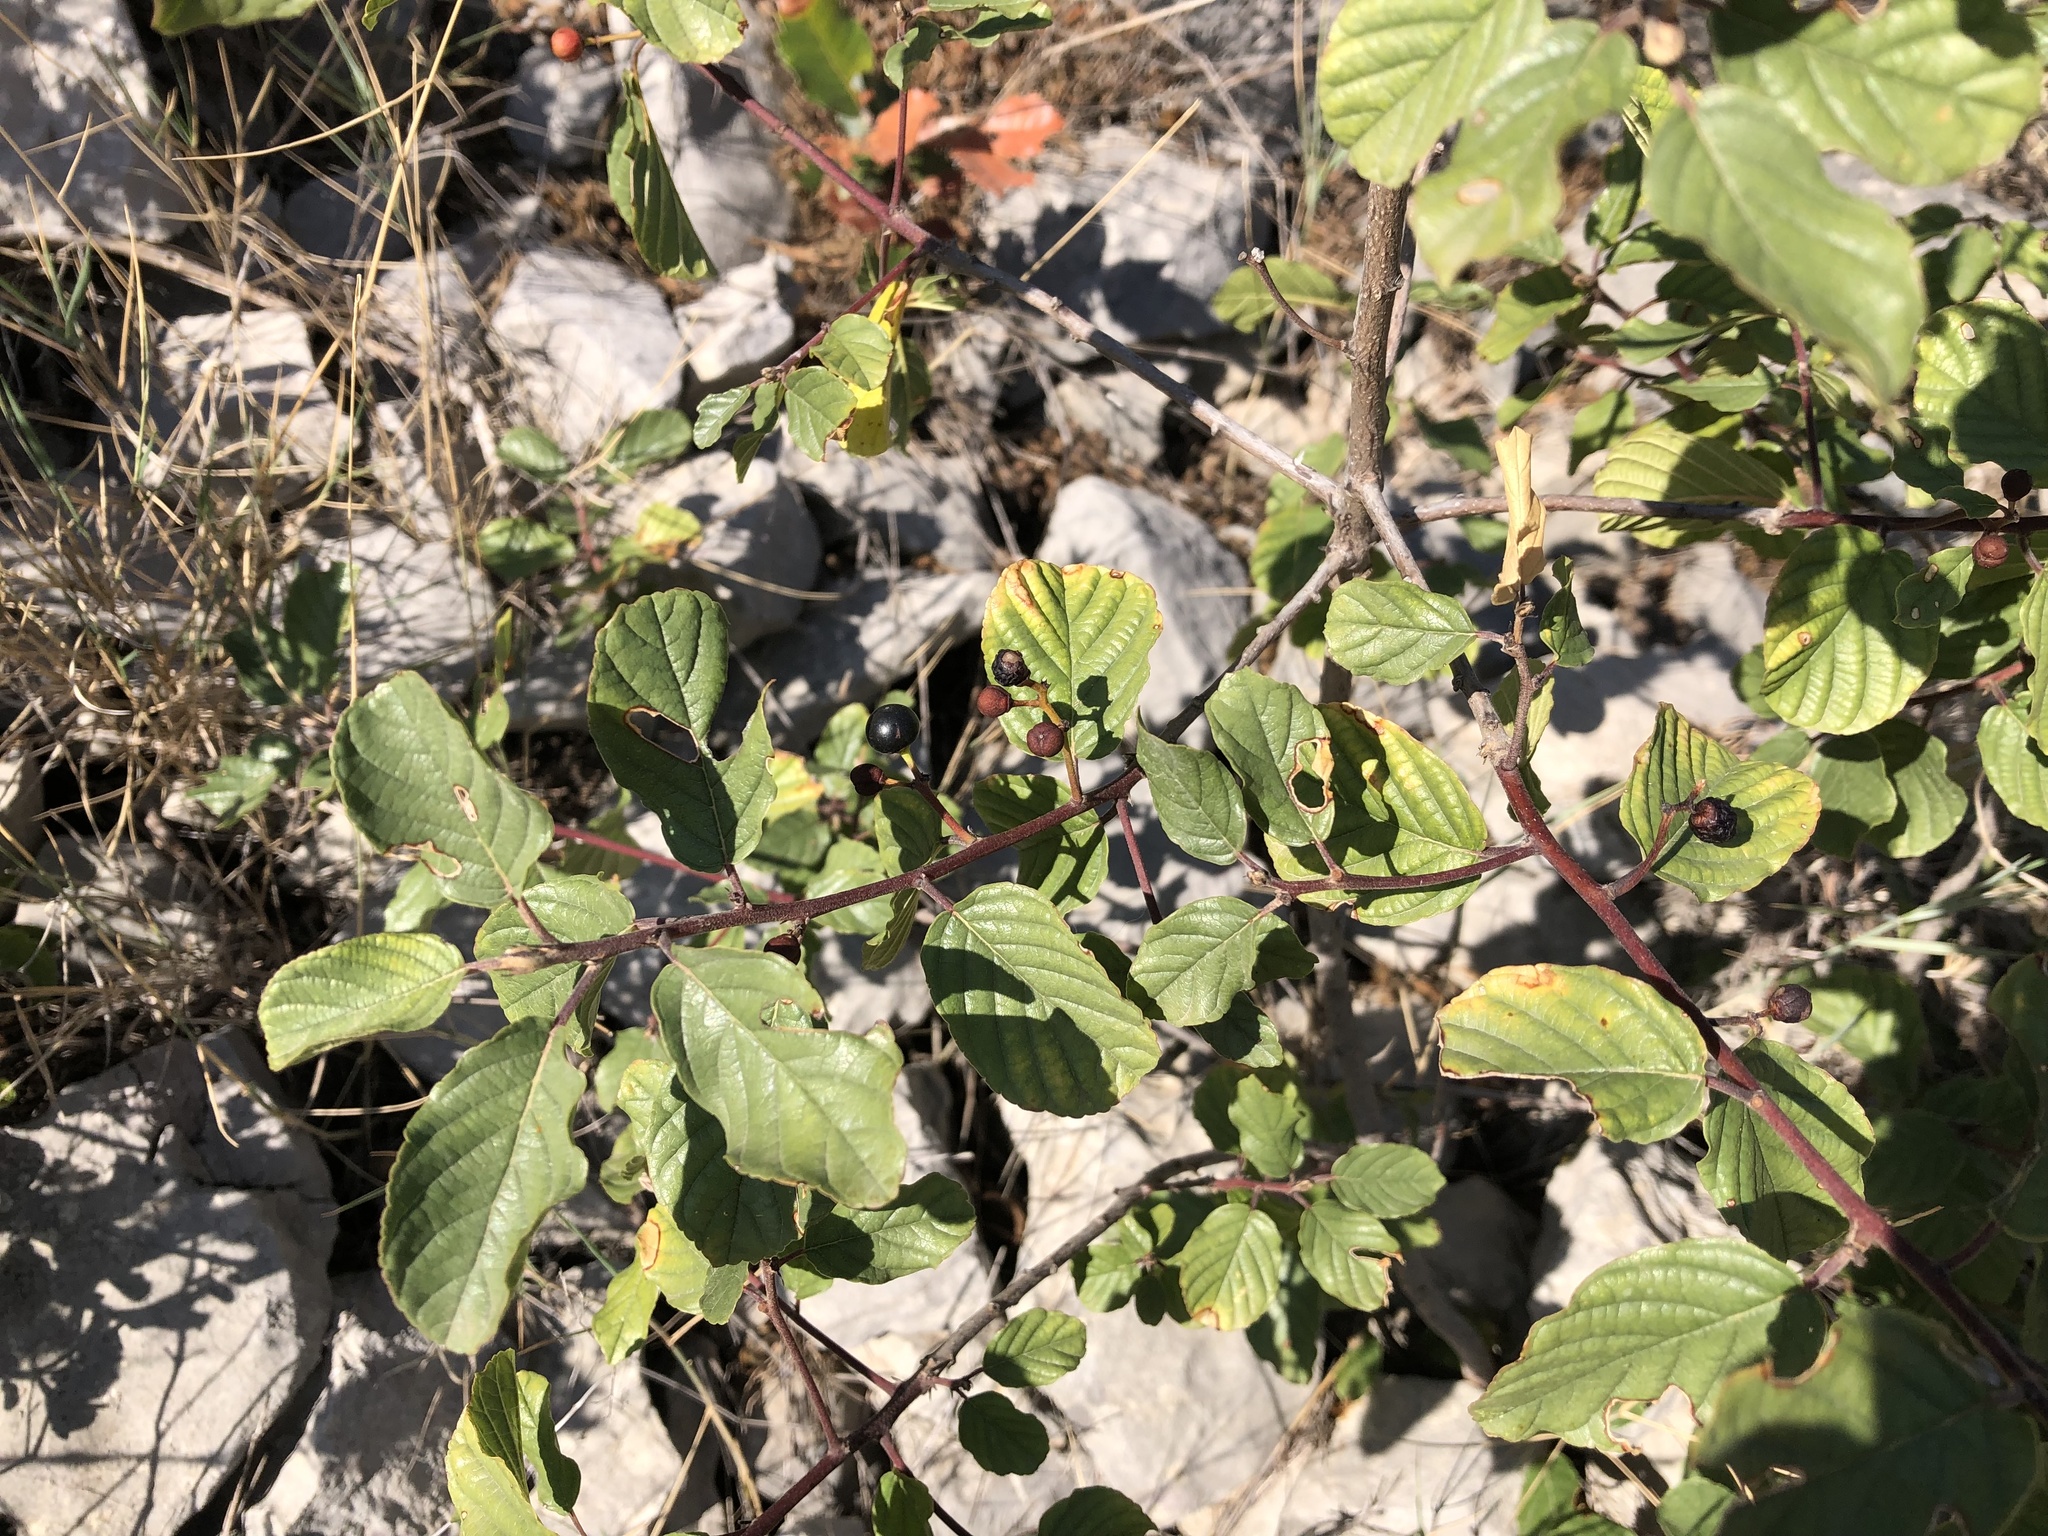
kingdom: Plantae
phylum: Tracheophyta
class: Magnoliopsida
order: Rosales
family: Rhamnaceae
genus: Frangula
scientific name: Frangula rupestris
